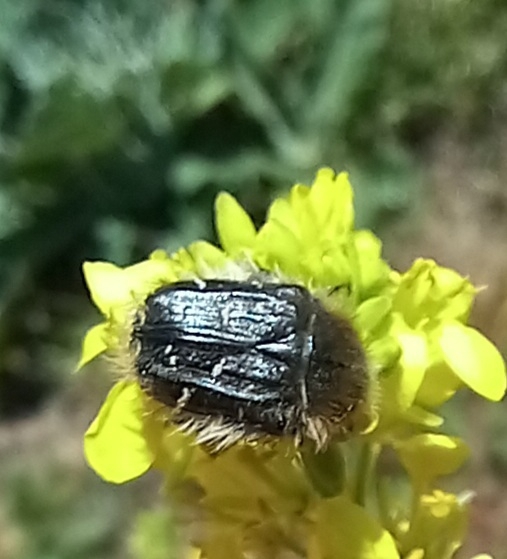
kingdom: Animalia
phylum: Arthropoda
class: Insecta
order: Coleoptera
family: Scarabaeidae
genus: Tropinota
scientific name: Tropinota squalida
